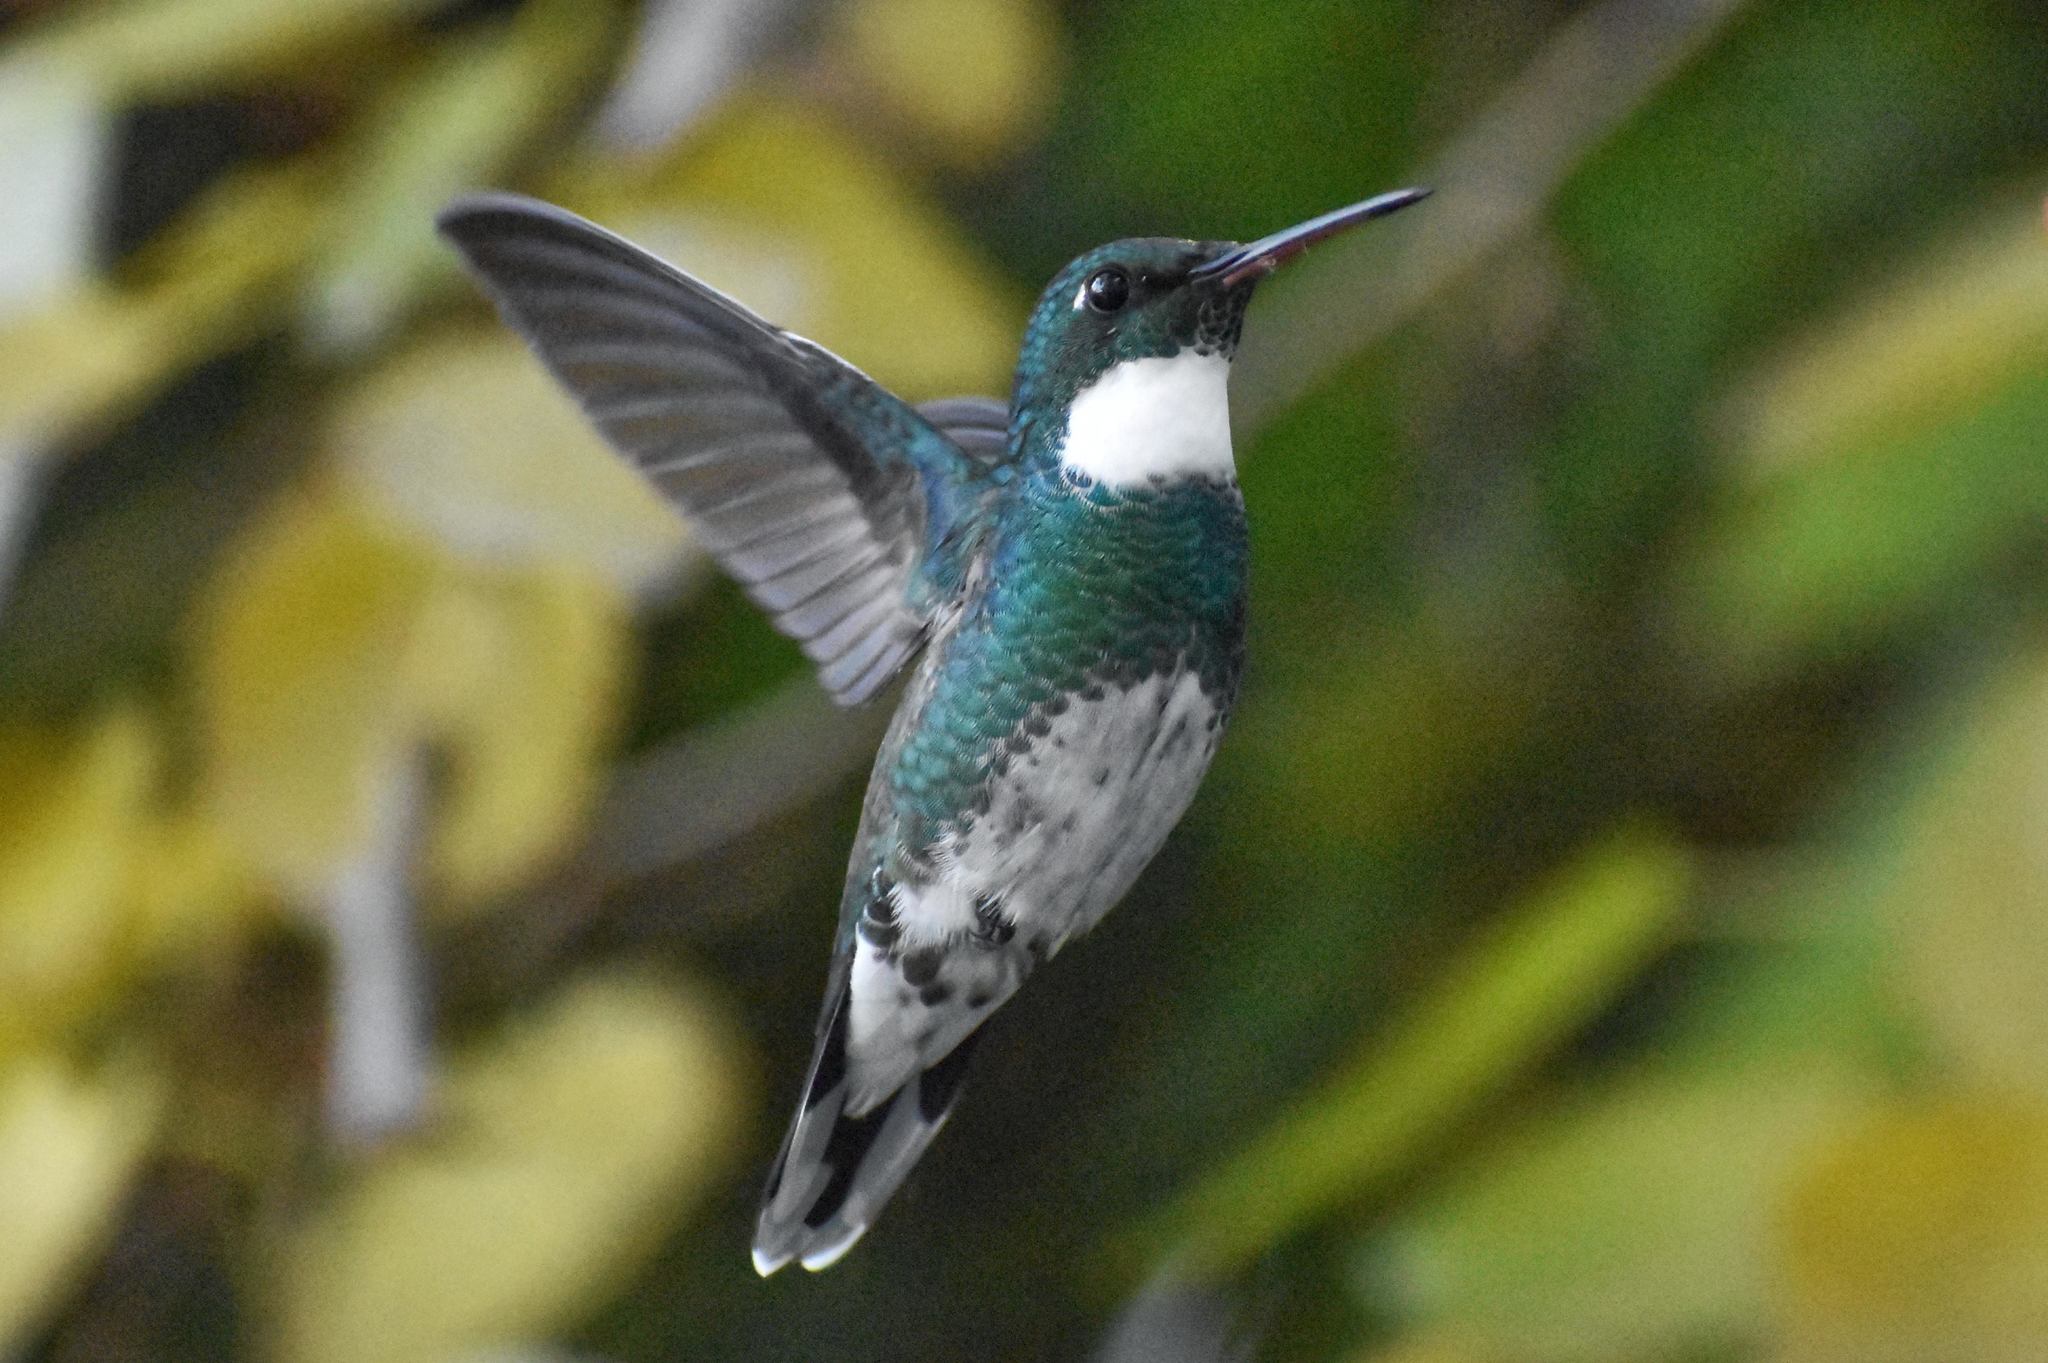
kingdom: Animalia
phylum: Chordata
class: Aves
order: Apodiformes
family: Trochilidae
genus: Leucochloris
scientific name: Leucochloris albicollis
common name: White-throated hummingbird
